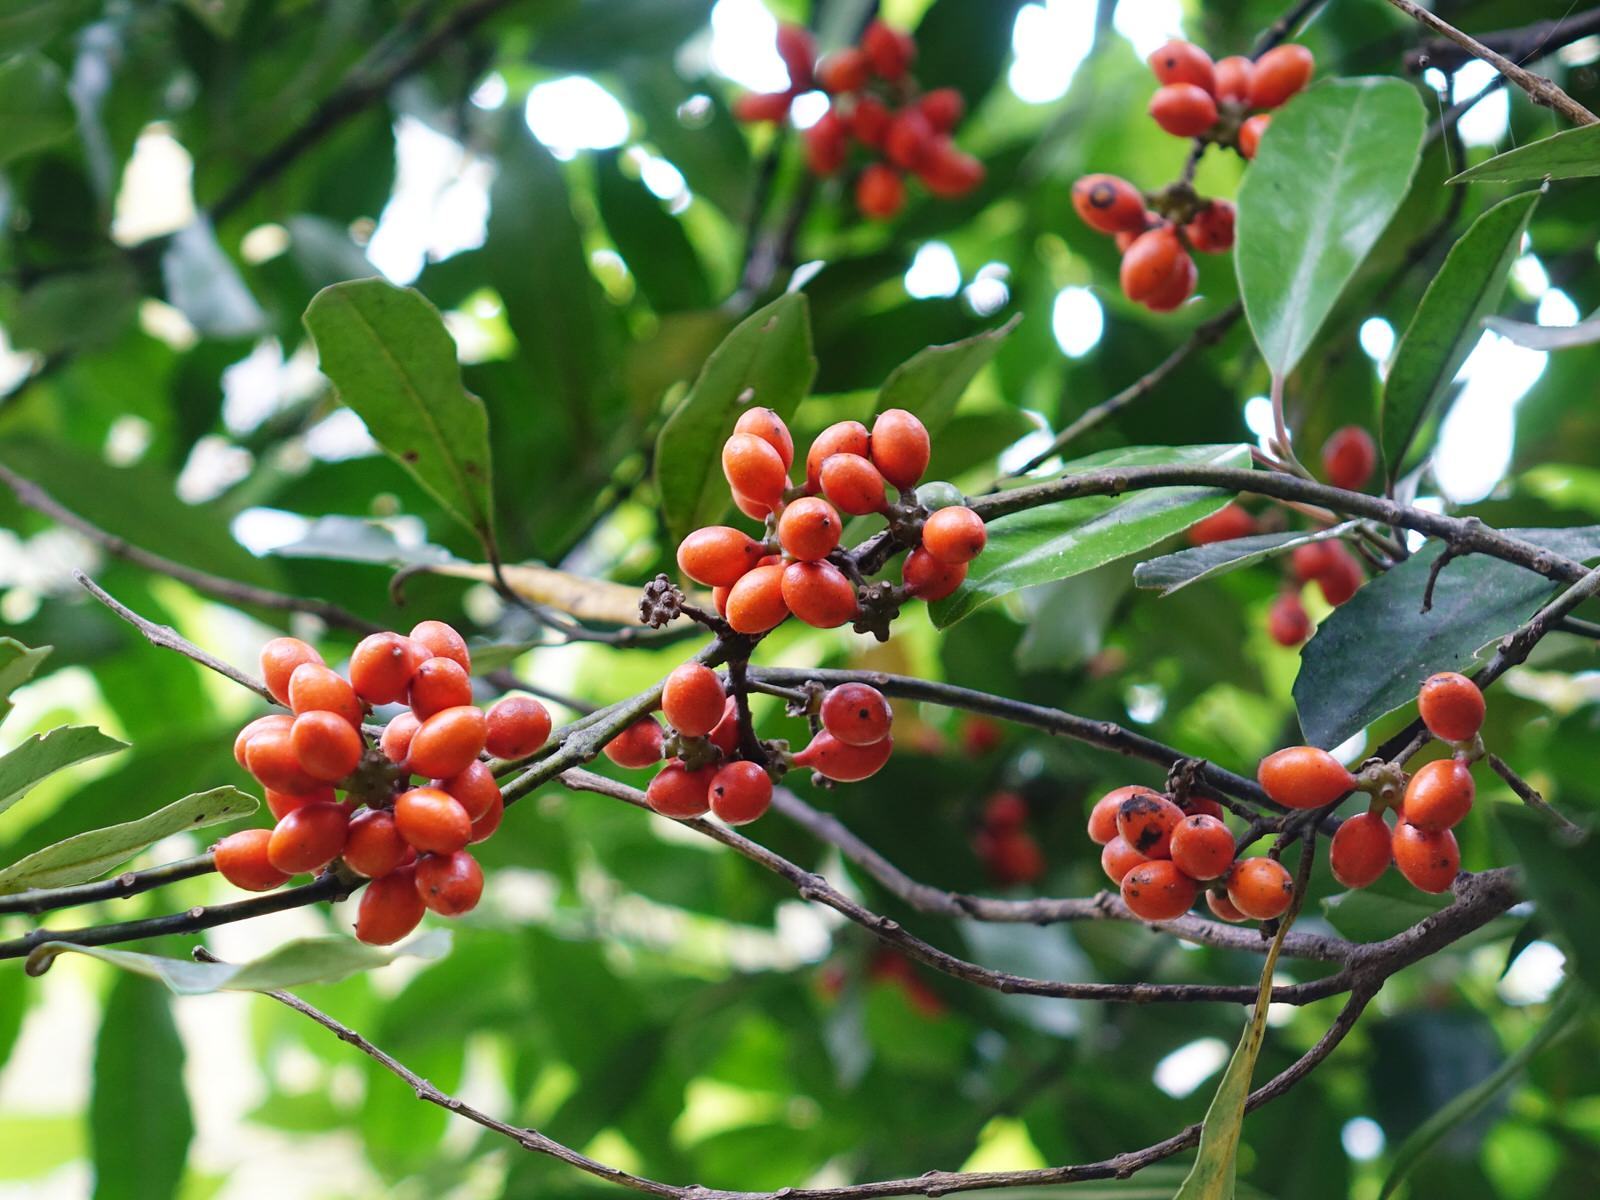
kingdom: Plantae
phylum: Tracheophyta
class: Magnoliopsida
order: Laurales
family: Monimiaceae
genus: Hedycarya
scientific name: Hedycarya arborea
